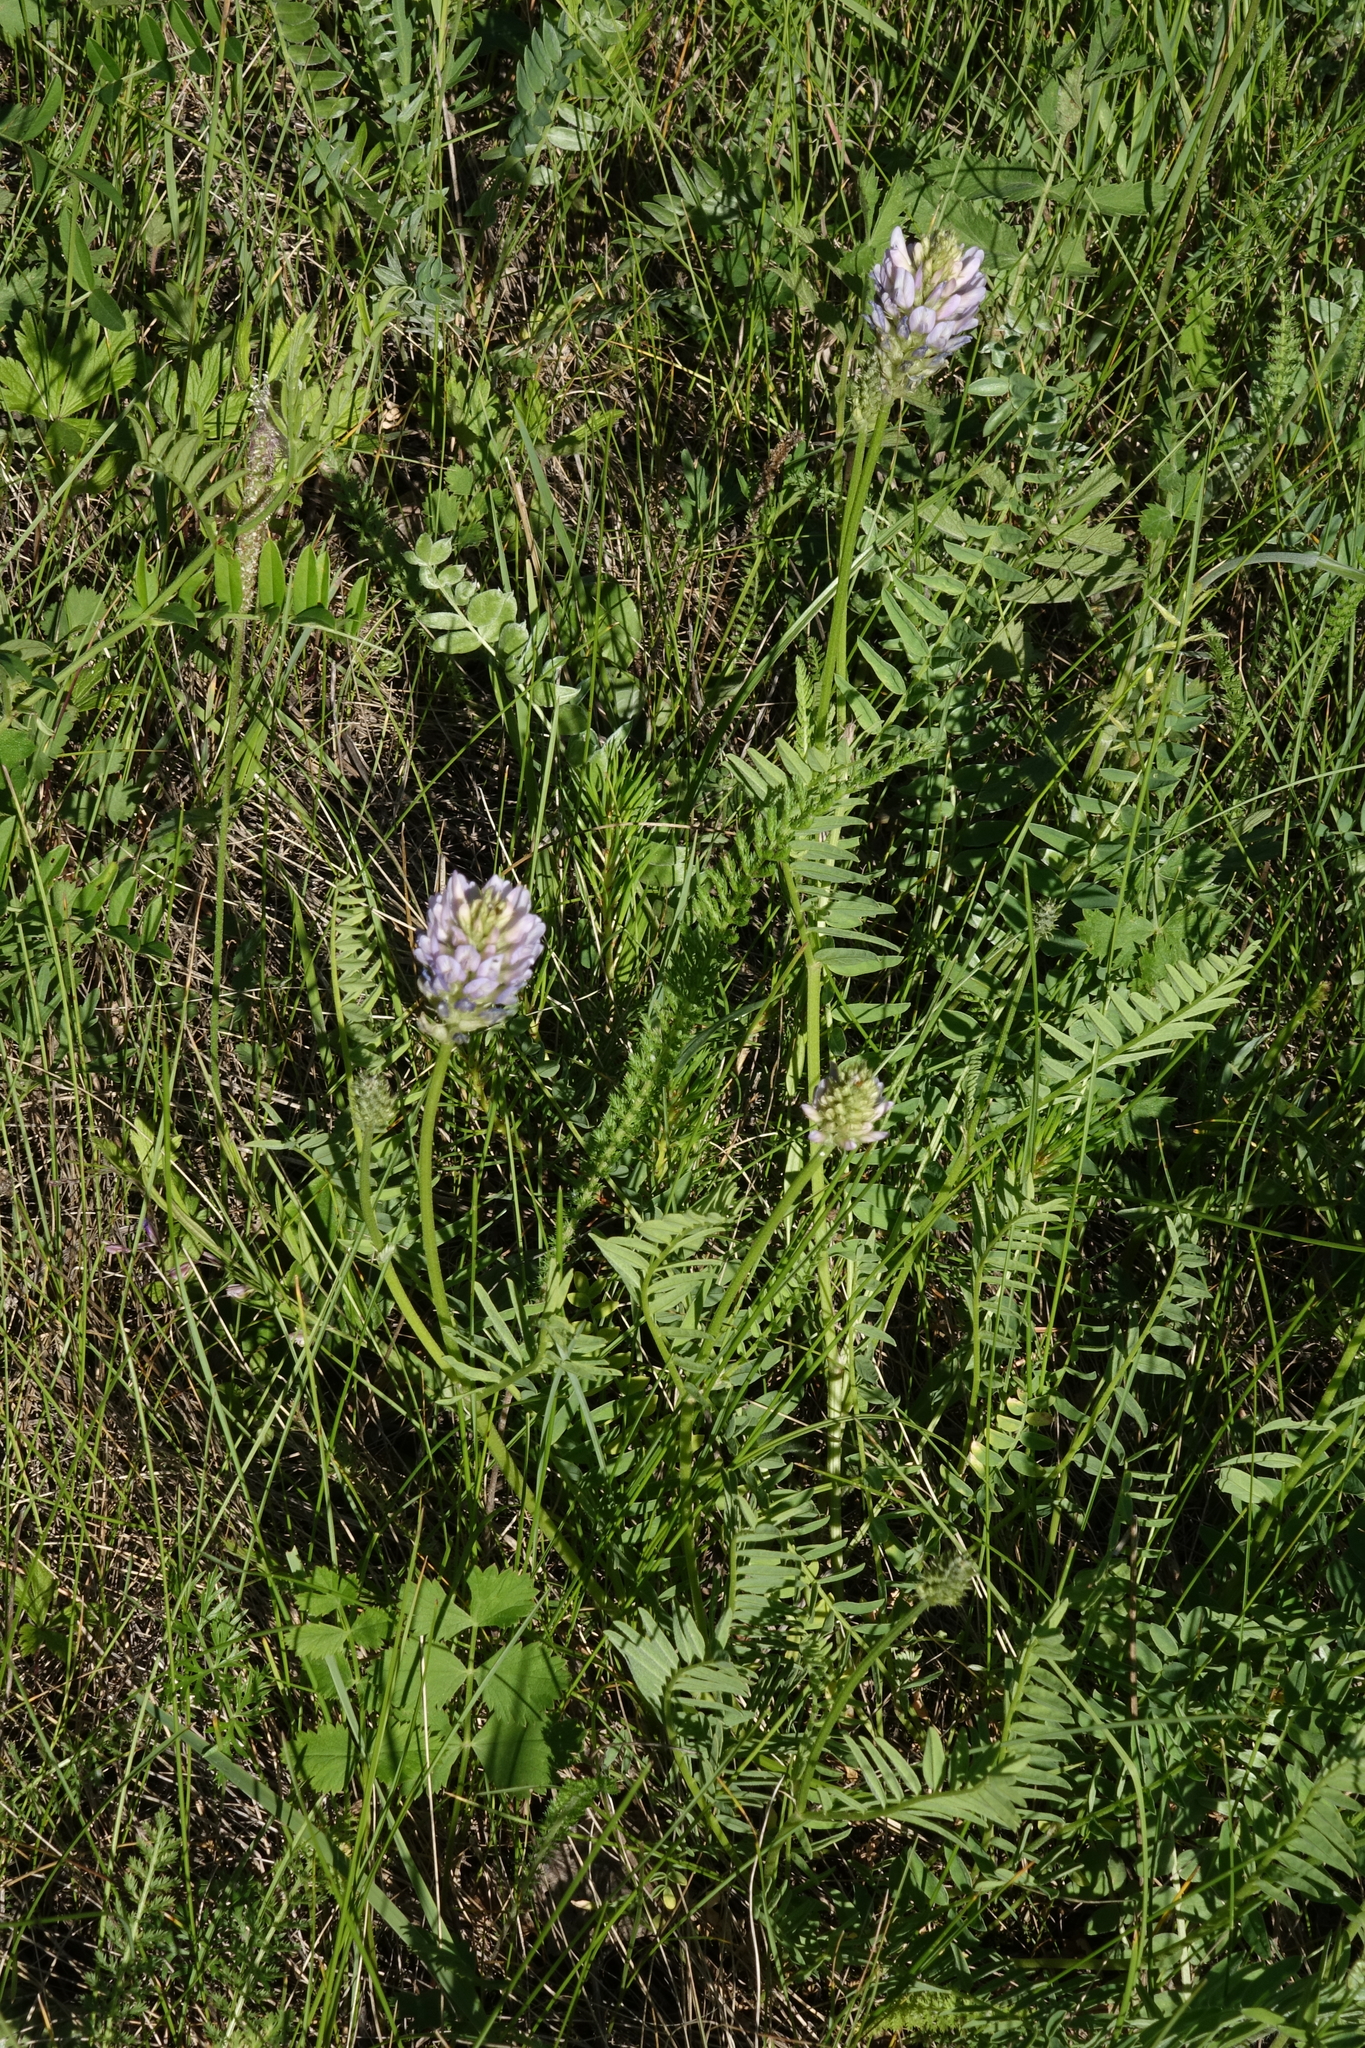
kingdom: Plantae
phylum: Tracheophyta
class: Magnoliopsida
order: Fabales
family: Fabaceae
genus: Astragalus
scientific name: Astragalus laxmannii
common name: Laxmann's milk-vetch
